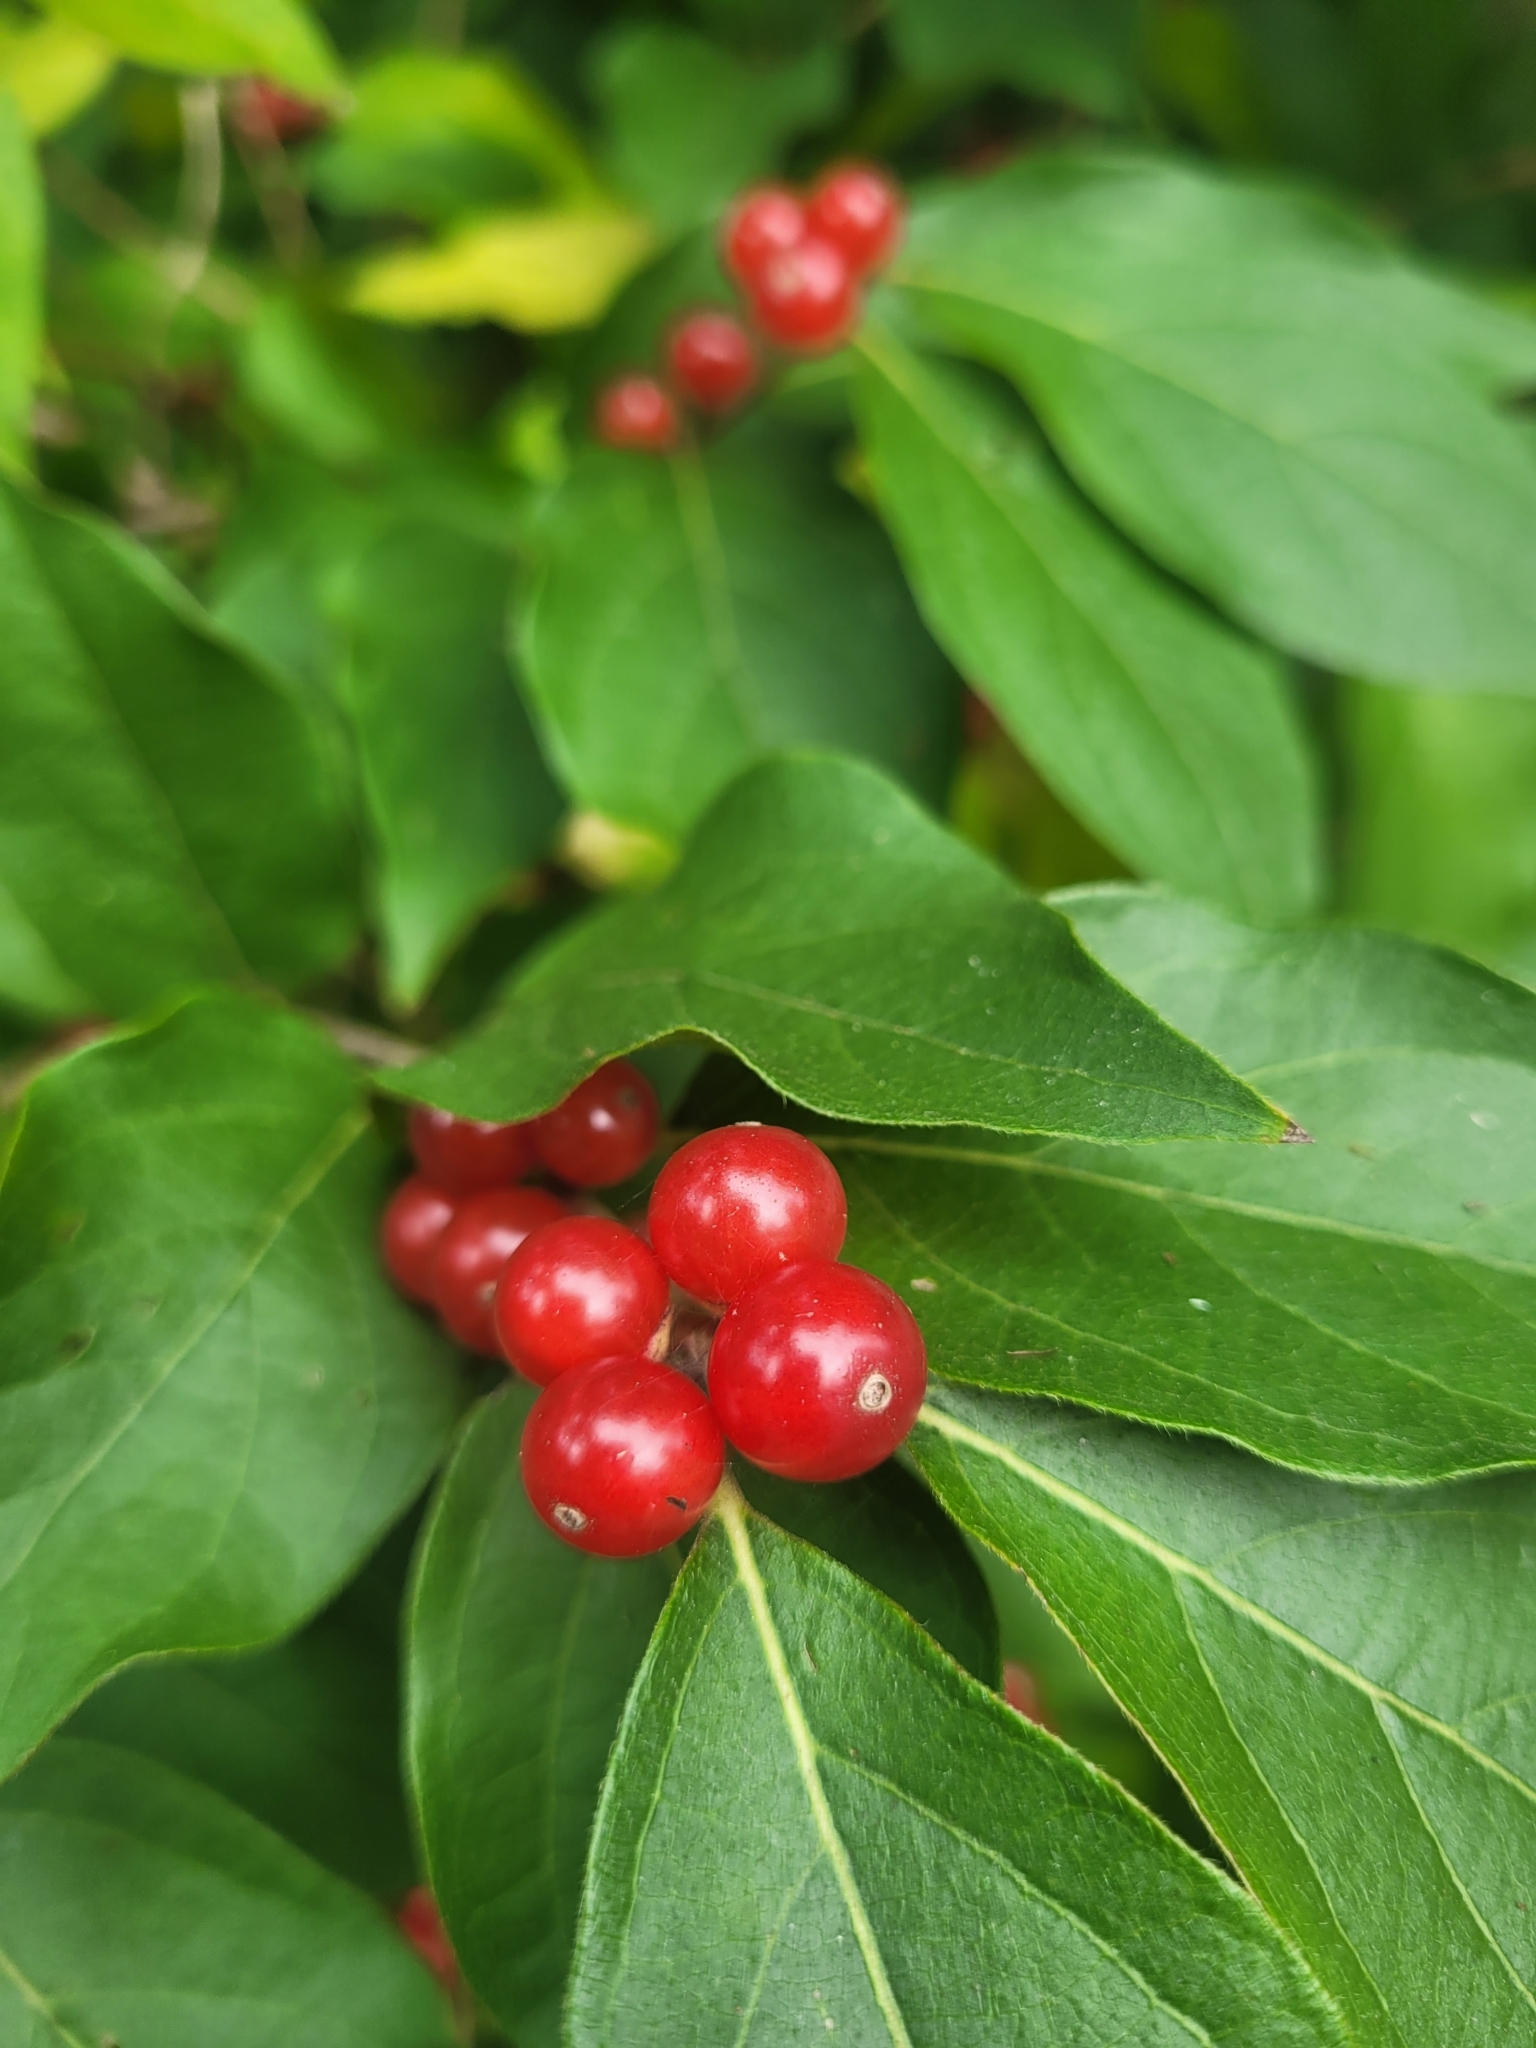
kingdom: Plantae
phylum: Tracheophyta
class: Magnoliopsida
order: Dipsacales
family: Caprifoliaceae
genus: Lonicera
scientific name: Lonicera maackii
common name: Amur honeysuckle
